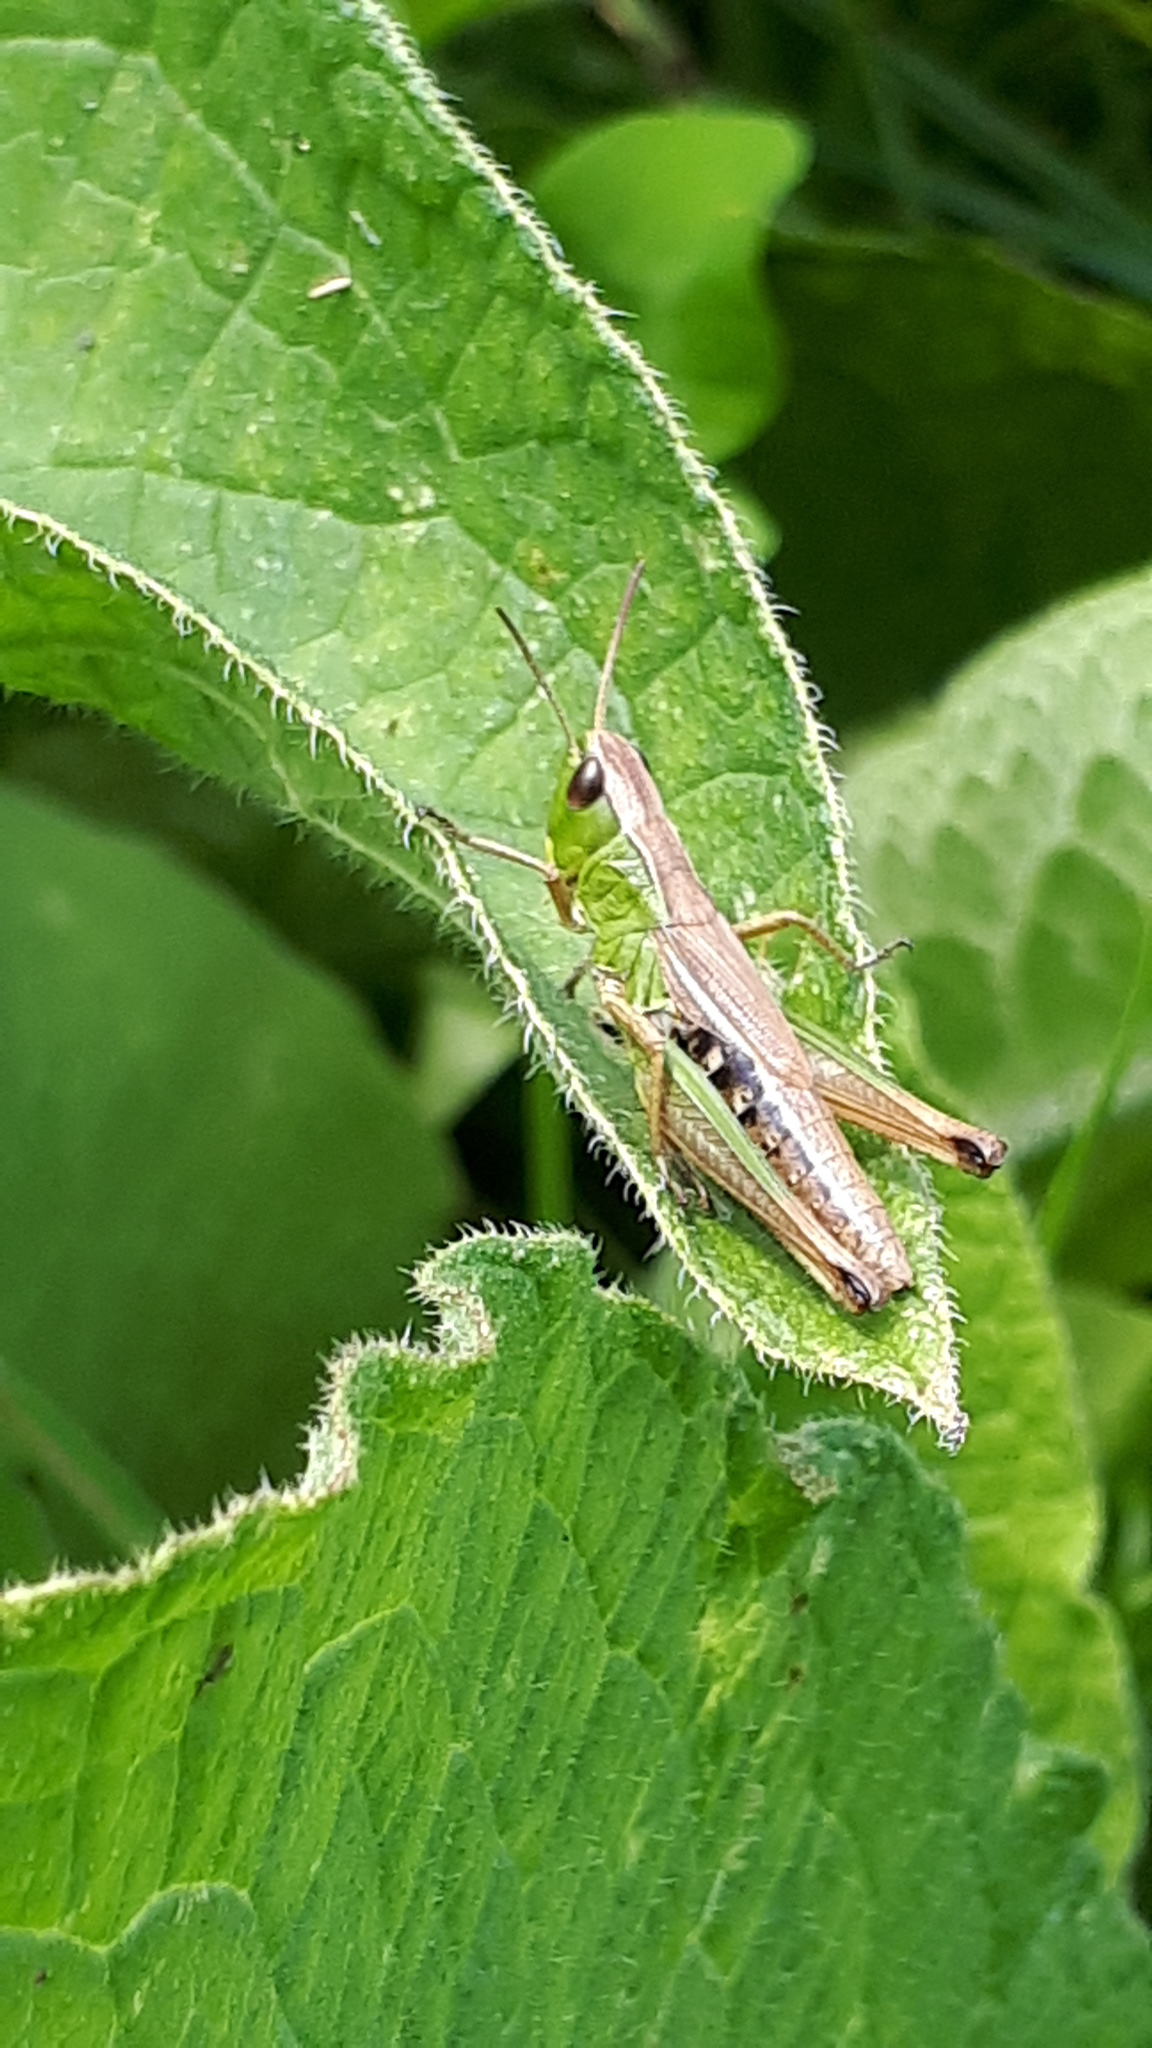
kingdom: Animalia
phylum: Arthropoda
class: Insecta
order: Orthoptera
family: Acrididae
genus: Pseudochorthippus
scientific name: Pseudochorthippus parallelus
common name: Meadow grasshopper
